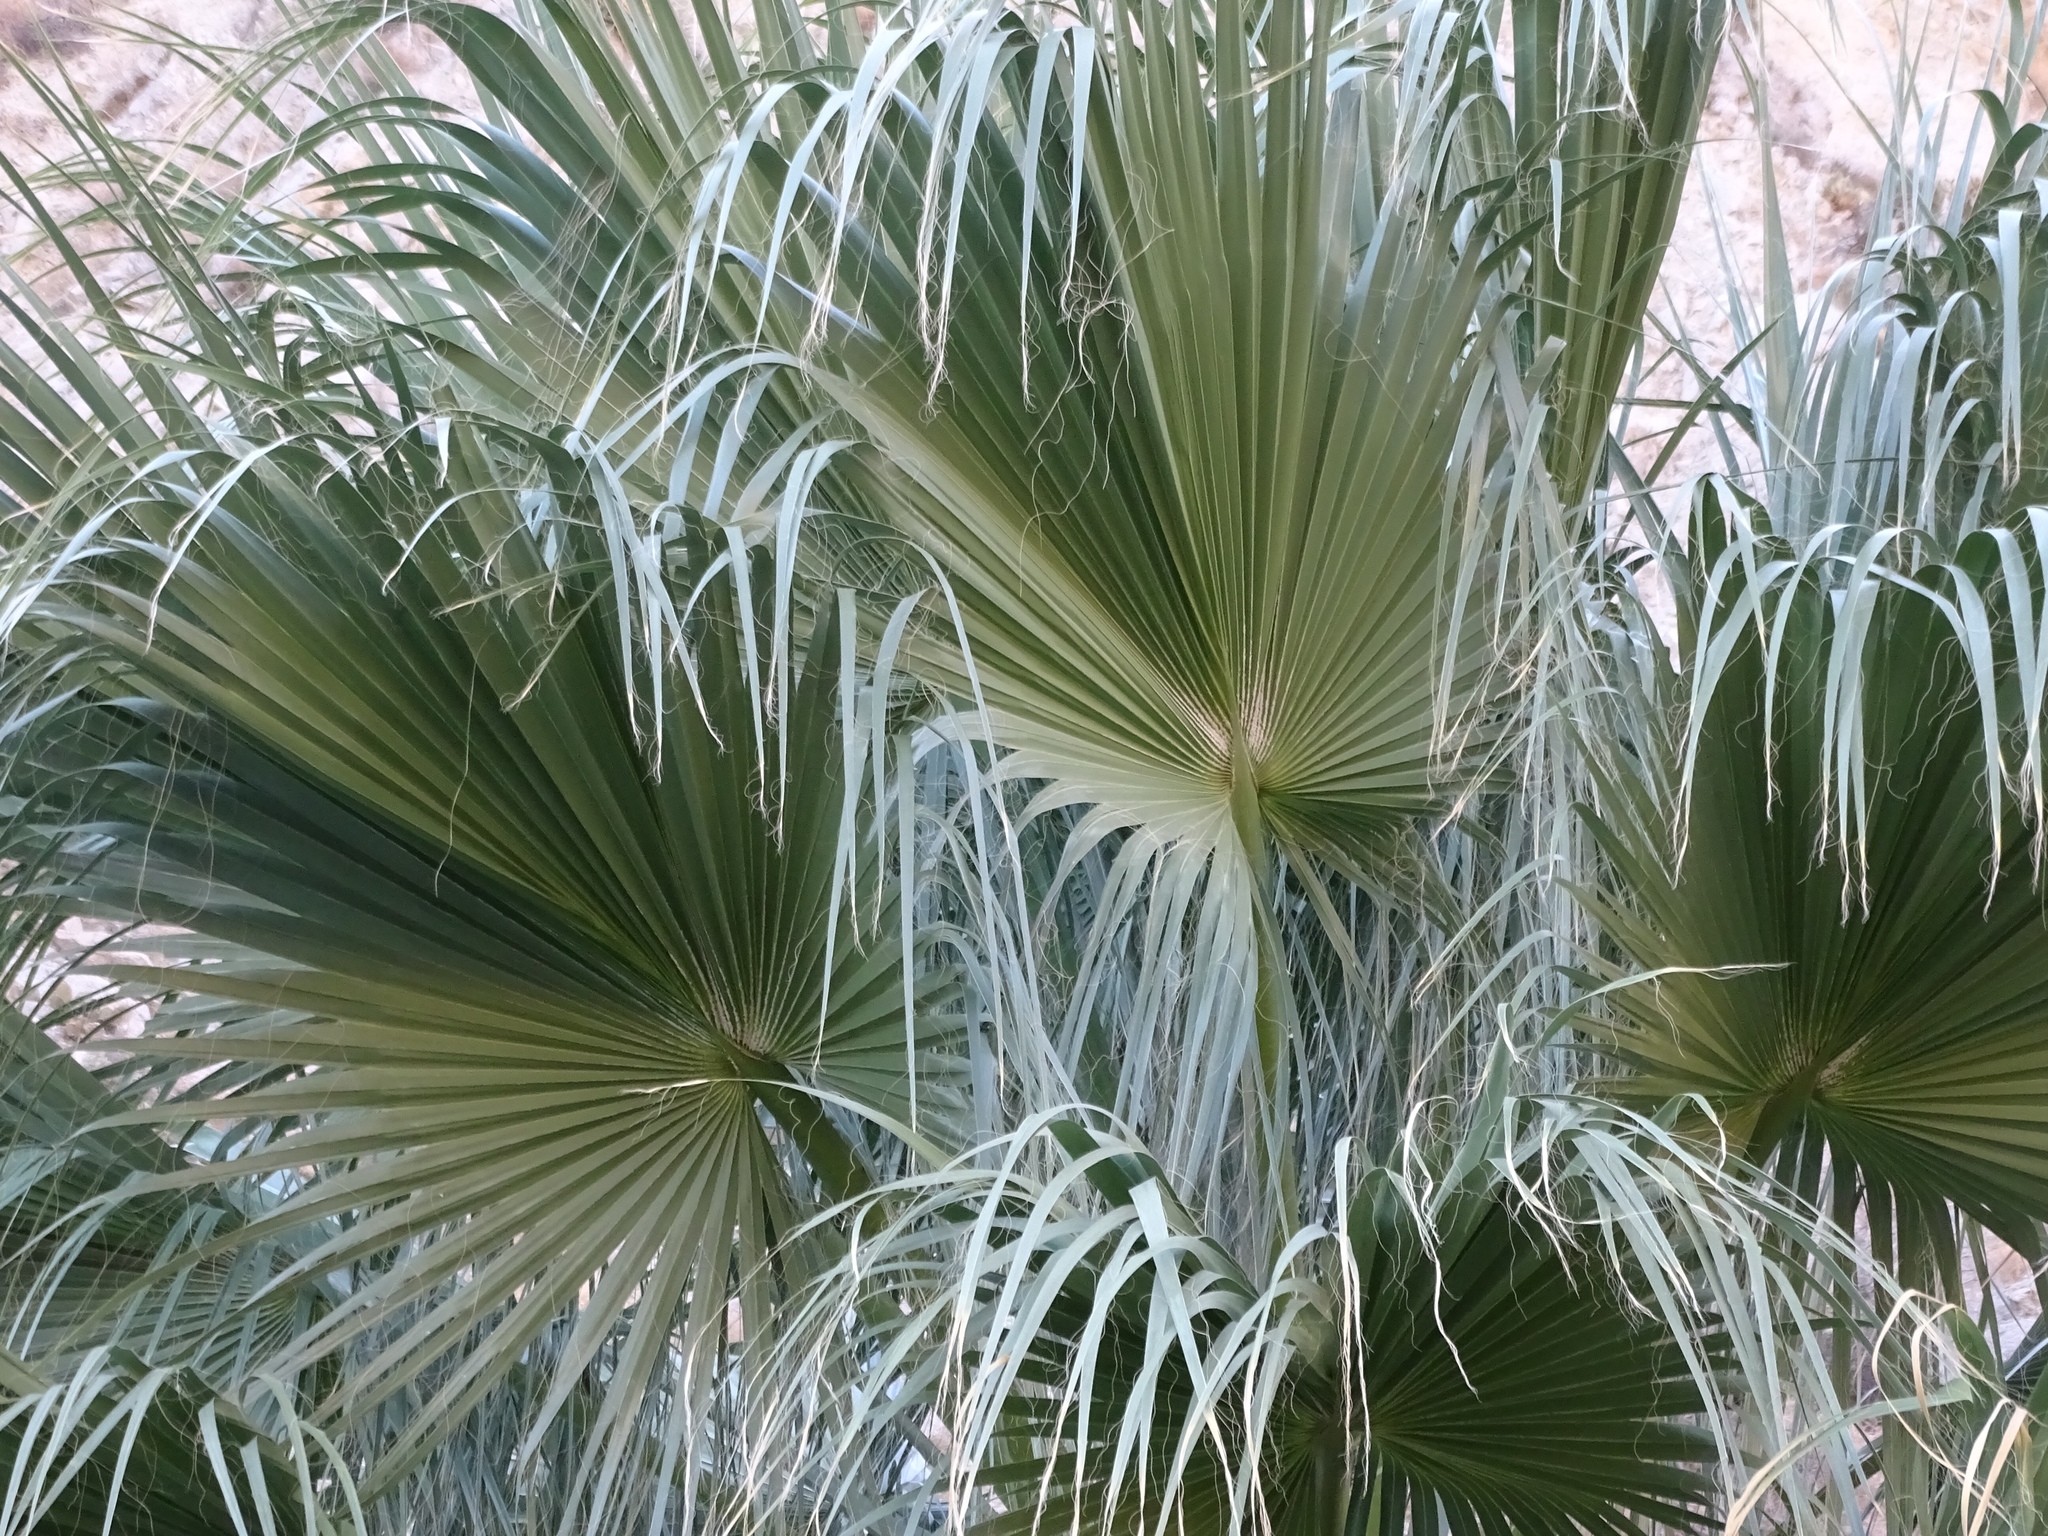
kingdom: Plantae
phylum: Tracheophyta
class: Liliopsida
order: Arecales
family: Arecaceae
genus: Washingtonia
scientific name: Washingtonia filifera
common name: California fan palm
